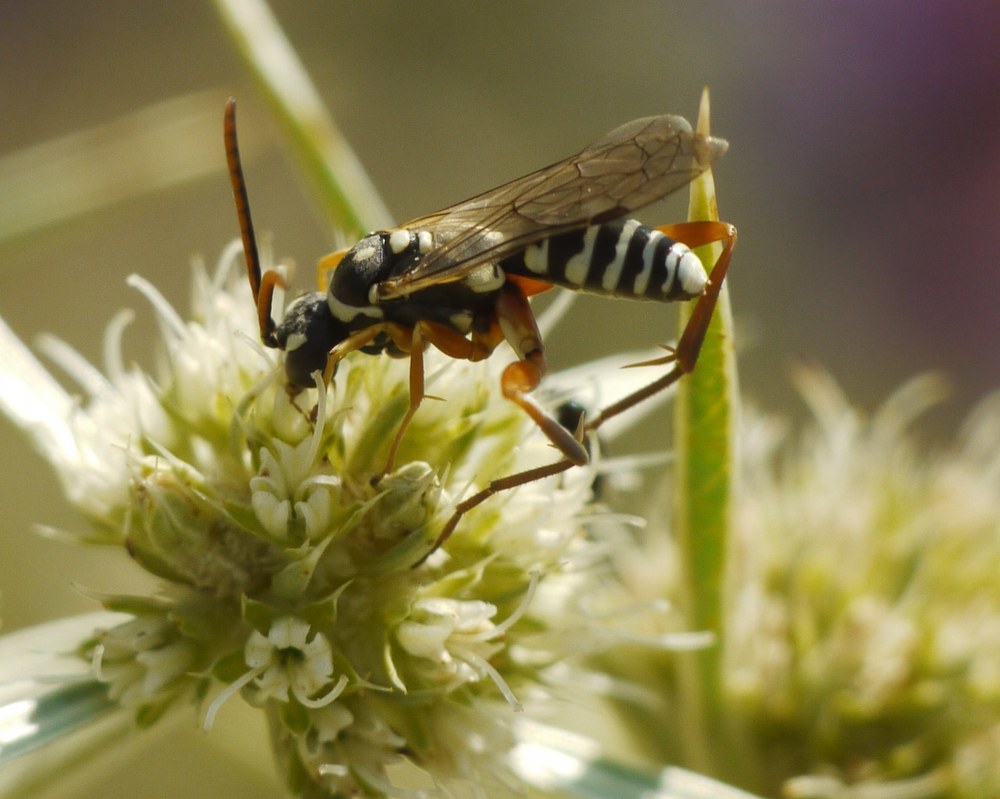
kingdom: Animalia
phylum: Arthropoda
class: Insecta
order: Hymenoptera
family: Pompilidae
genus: Ceropales
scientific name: Ceropales albicincta
